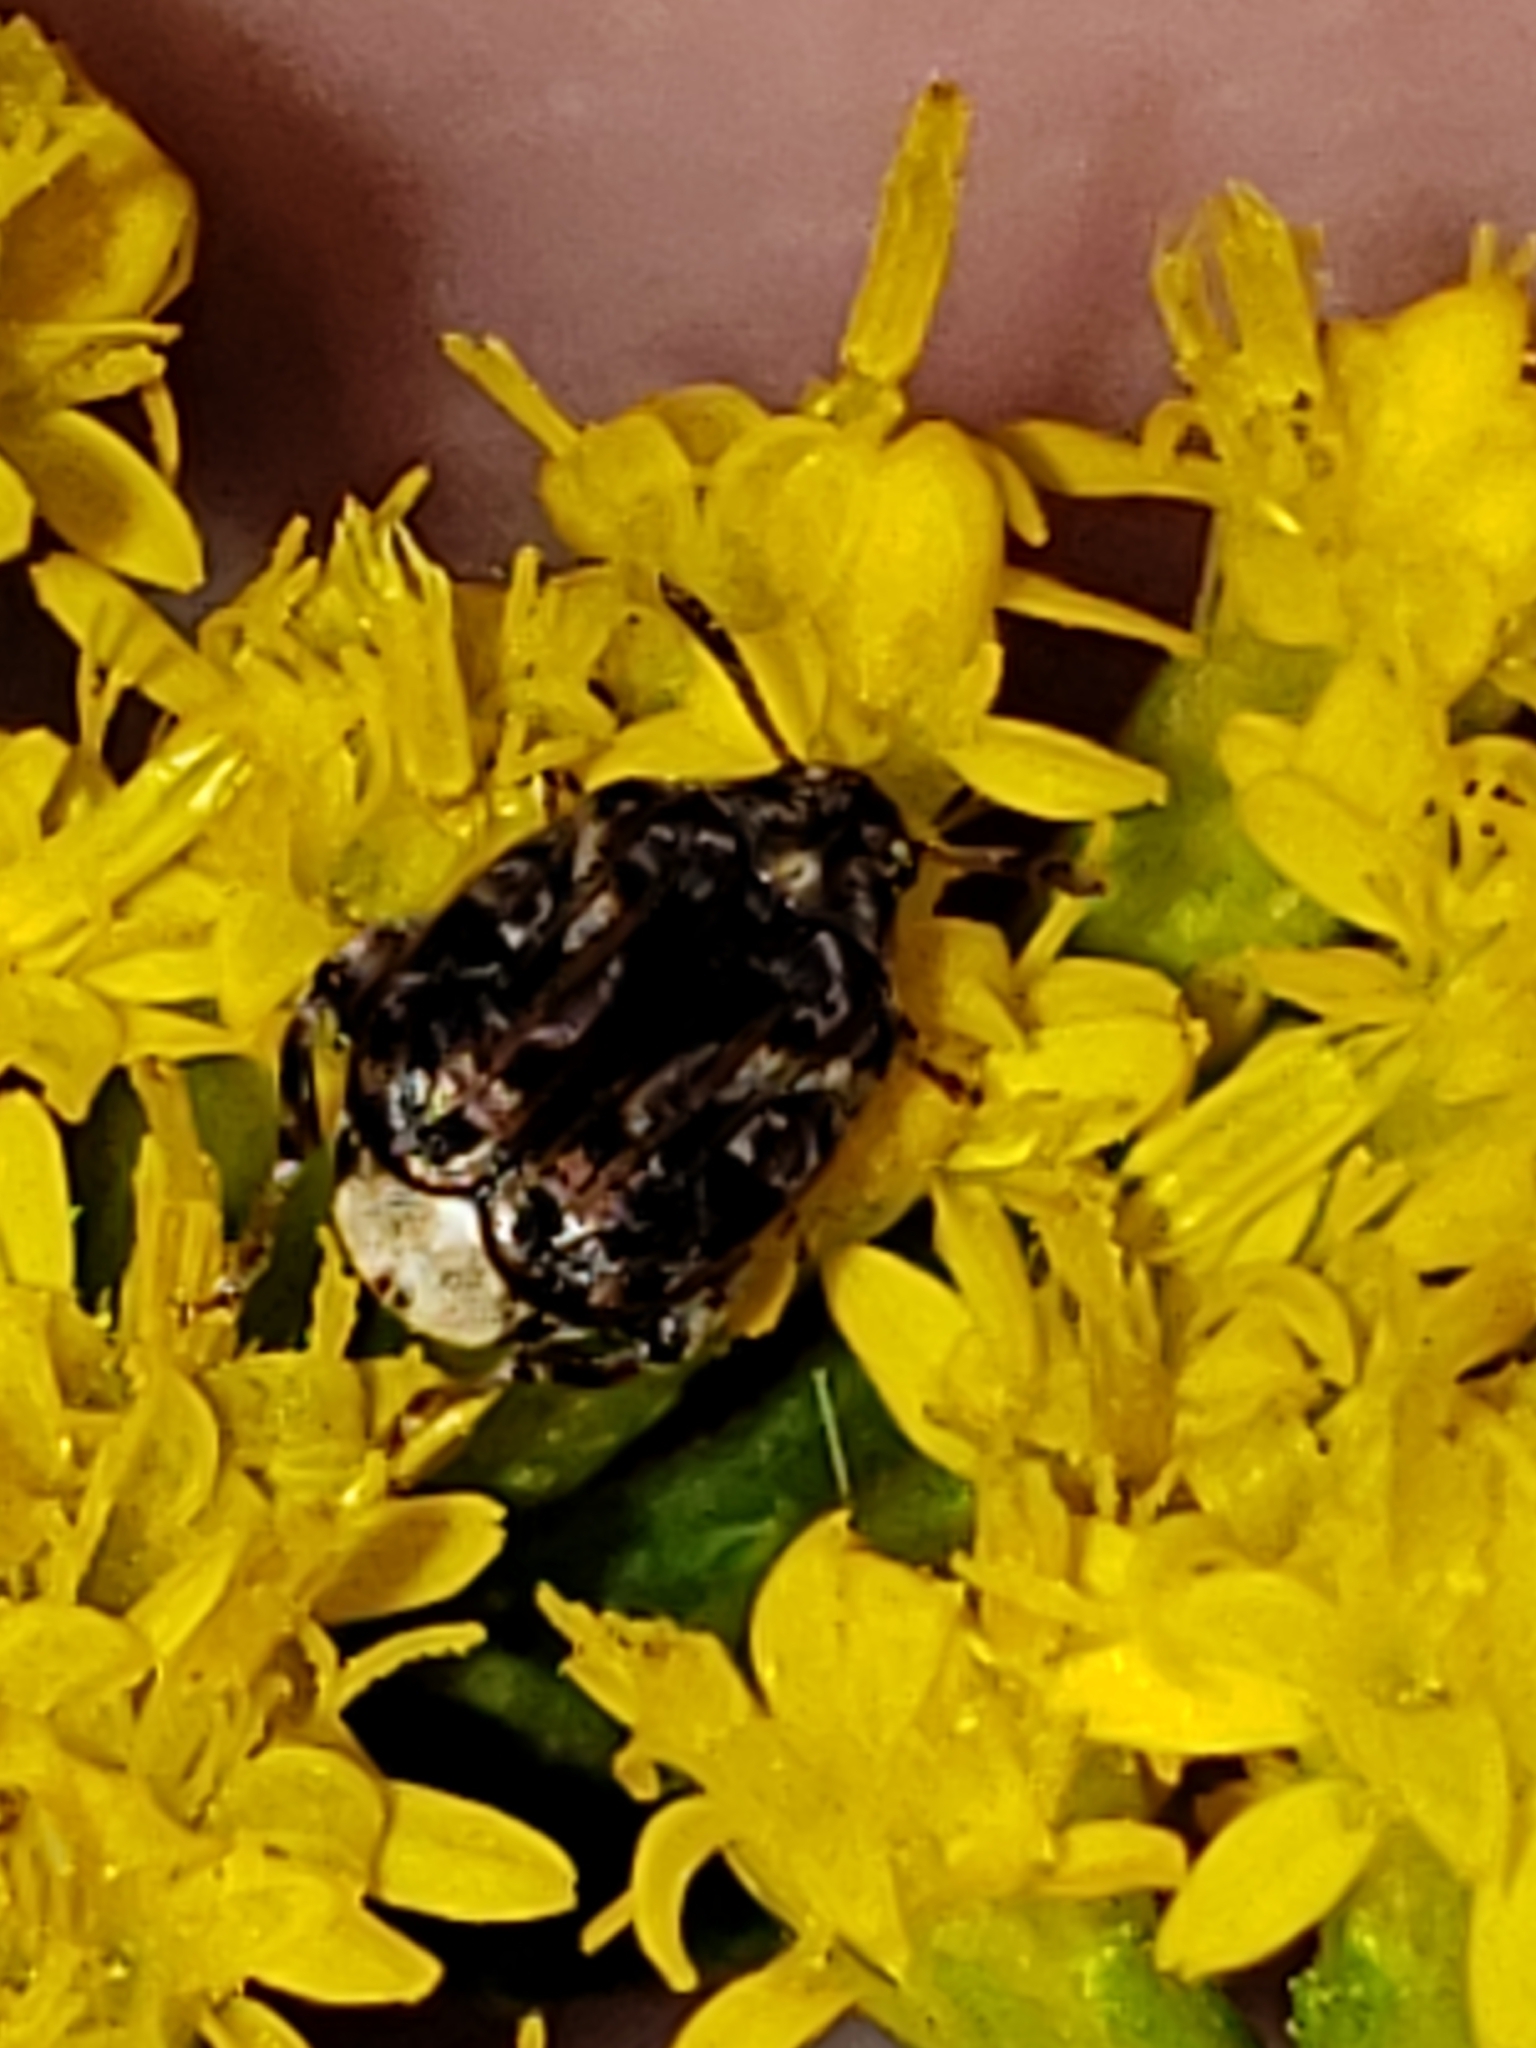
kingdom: Animalia
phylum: Arthropoda
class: Insecta
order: Coleoptera
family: Chrysomelidae
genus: Gibbobruchus
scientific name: Gibbobruchus mimus
